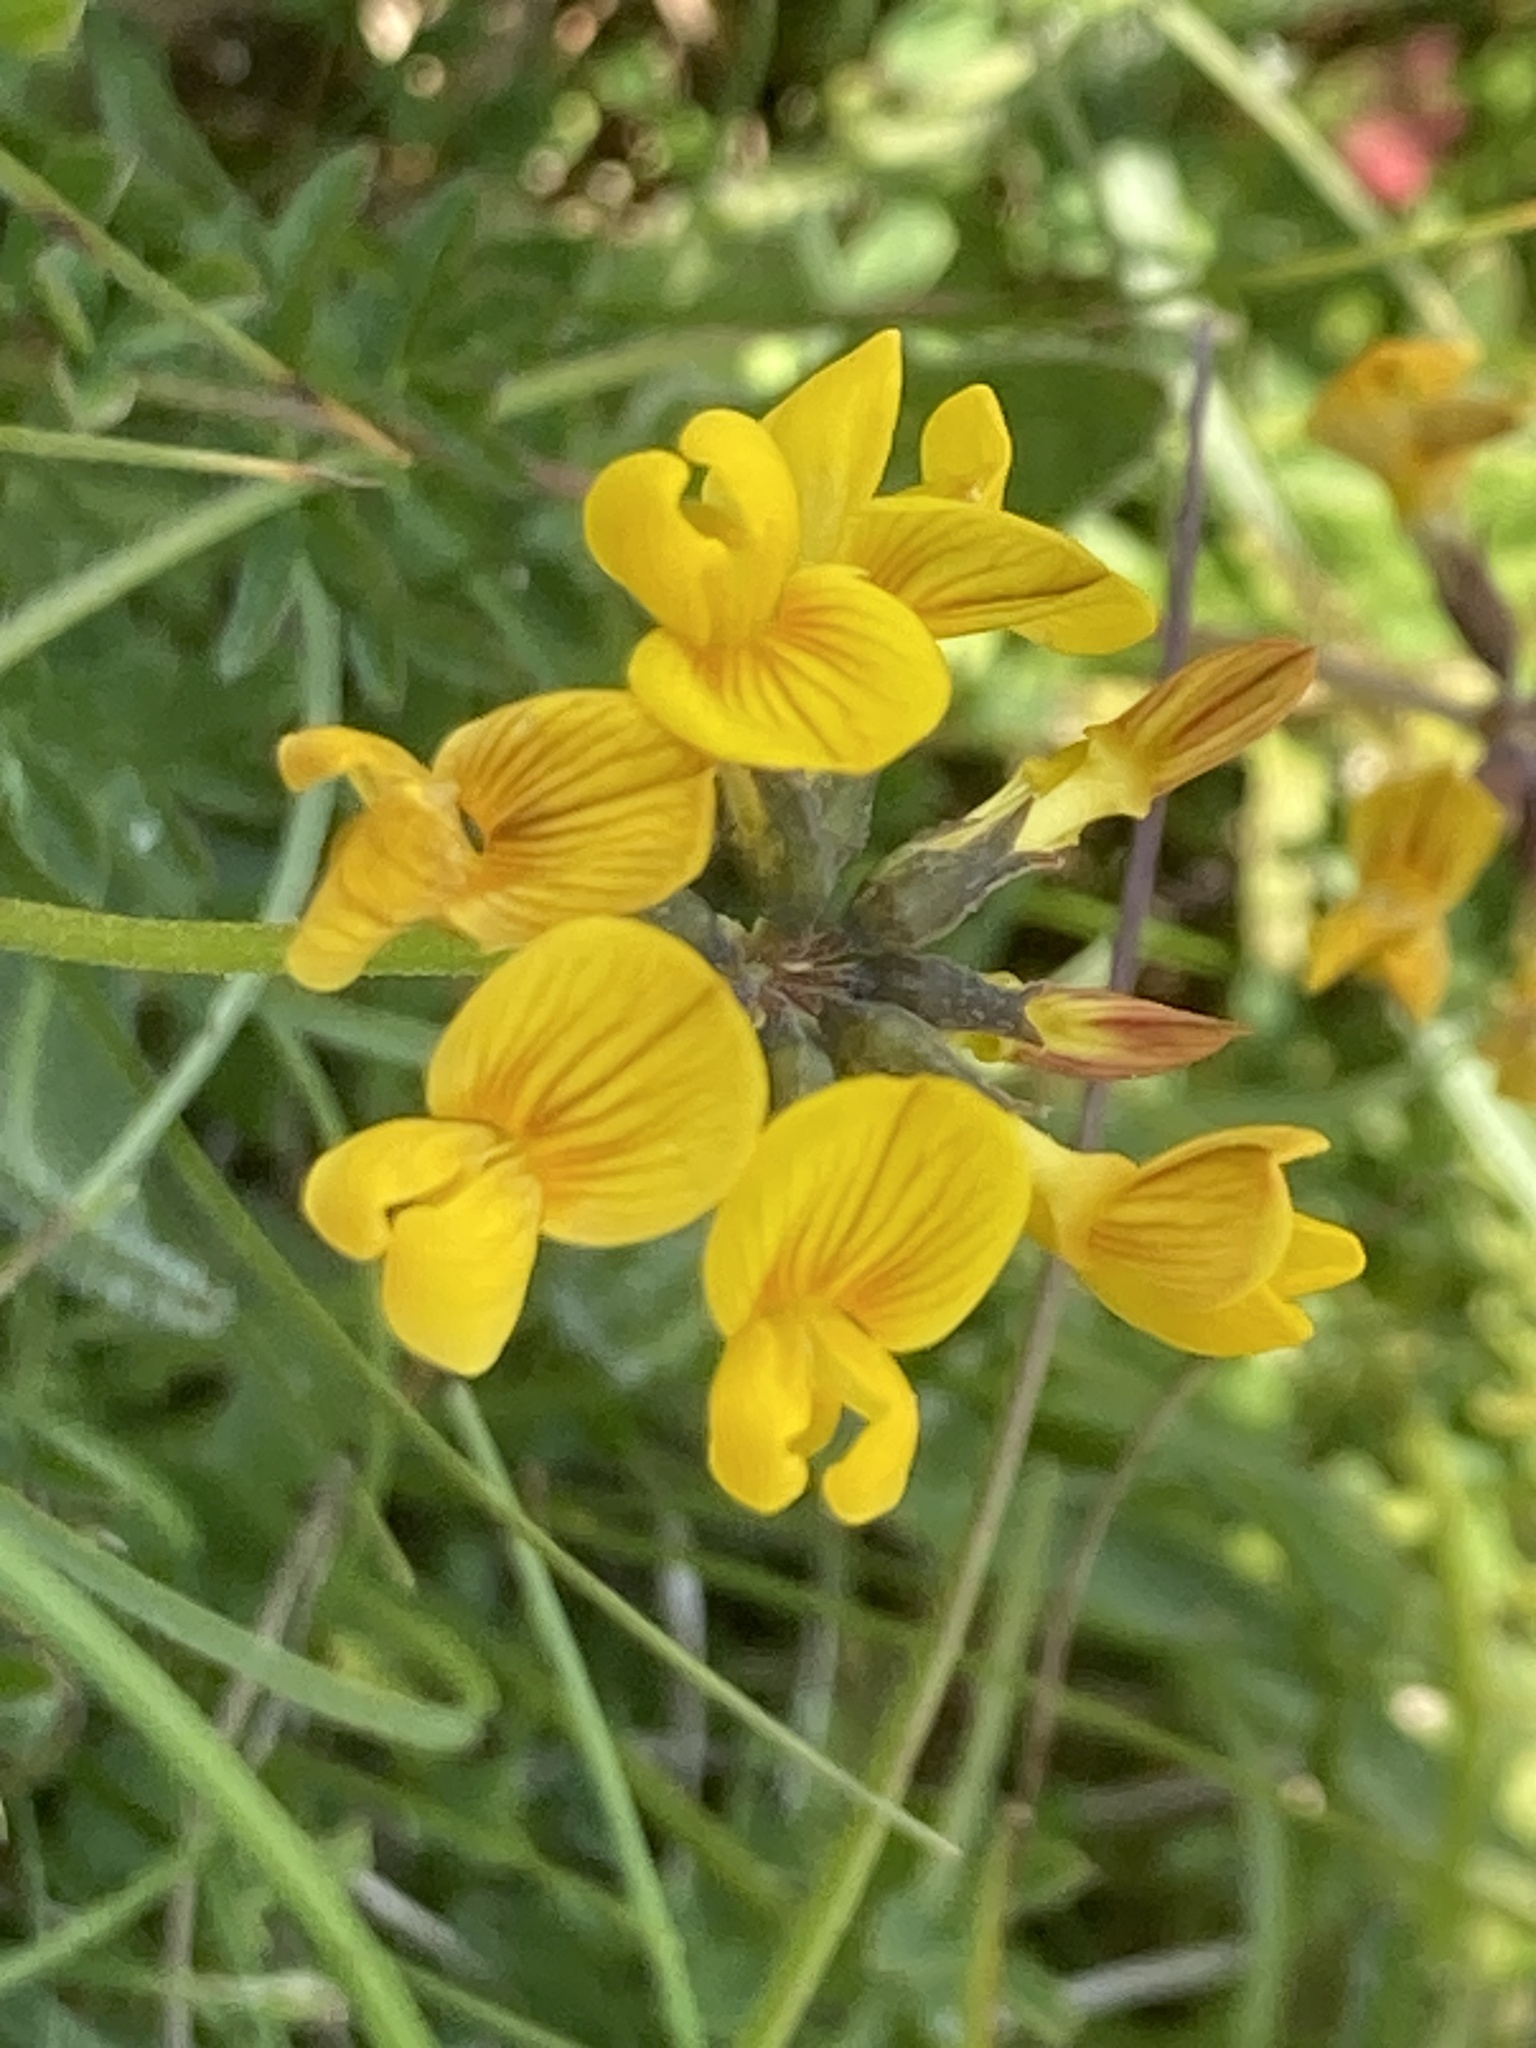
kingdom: Plantae
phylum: Tracheophyta
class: Magnoliopsida
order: Fabales
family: Fabaceae
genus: Hippocrepis
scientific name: Hippocrepis comosa
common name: Horseshoe vetch
